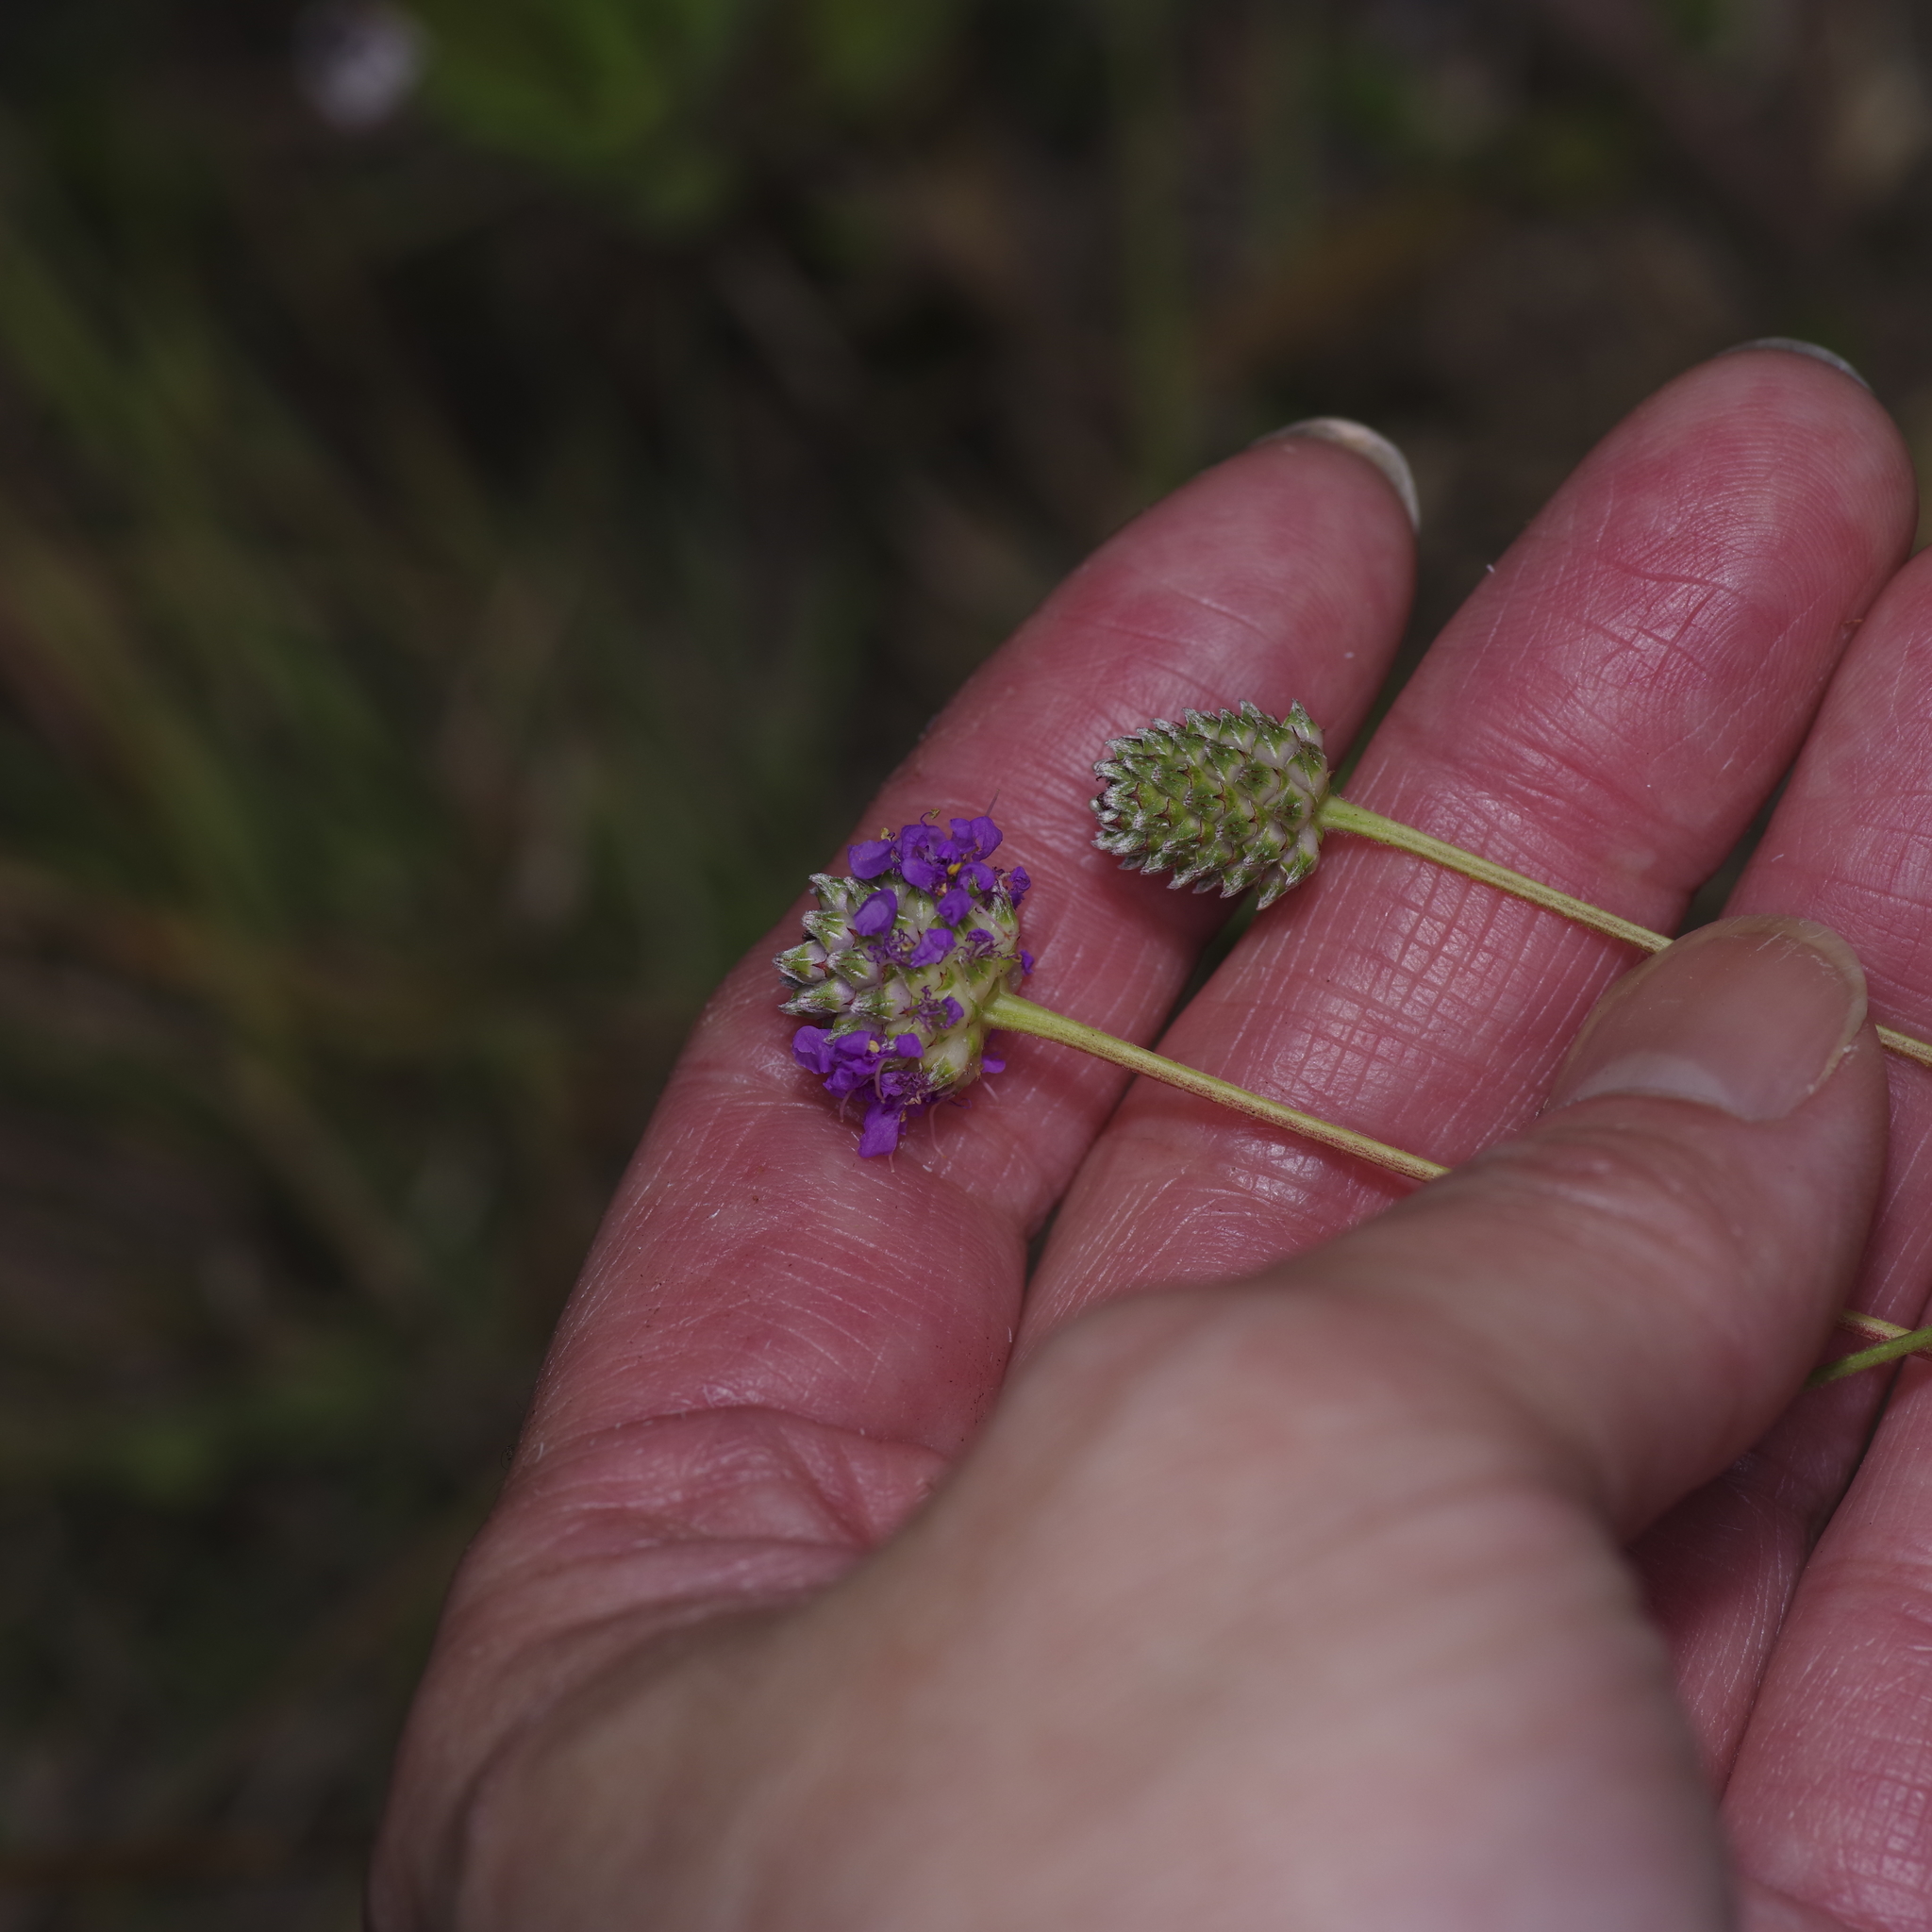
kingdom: Plantae
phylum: Tracheophyta
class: Magnoliopsida
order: Fabales
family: Fabaceae
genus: Dalea
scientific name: Dalea compacta
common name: Compact prairie-clover
